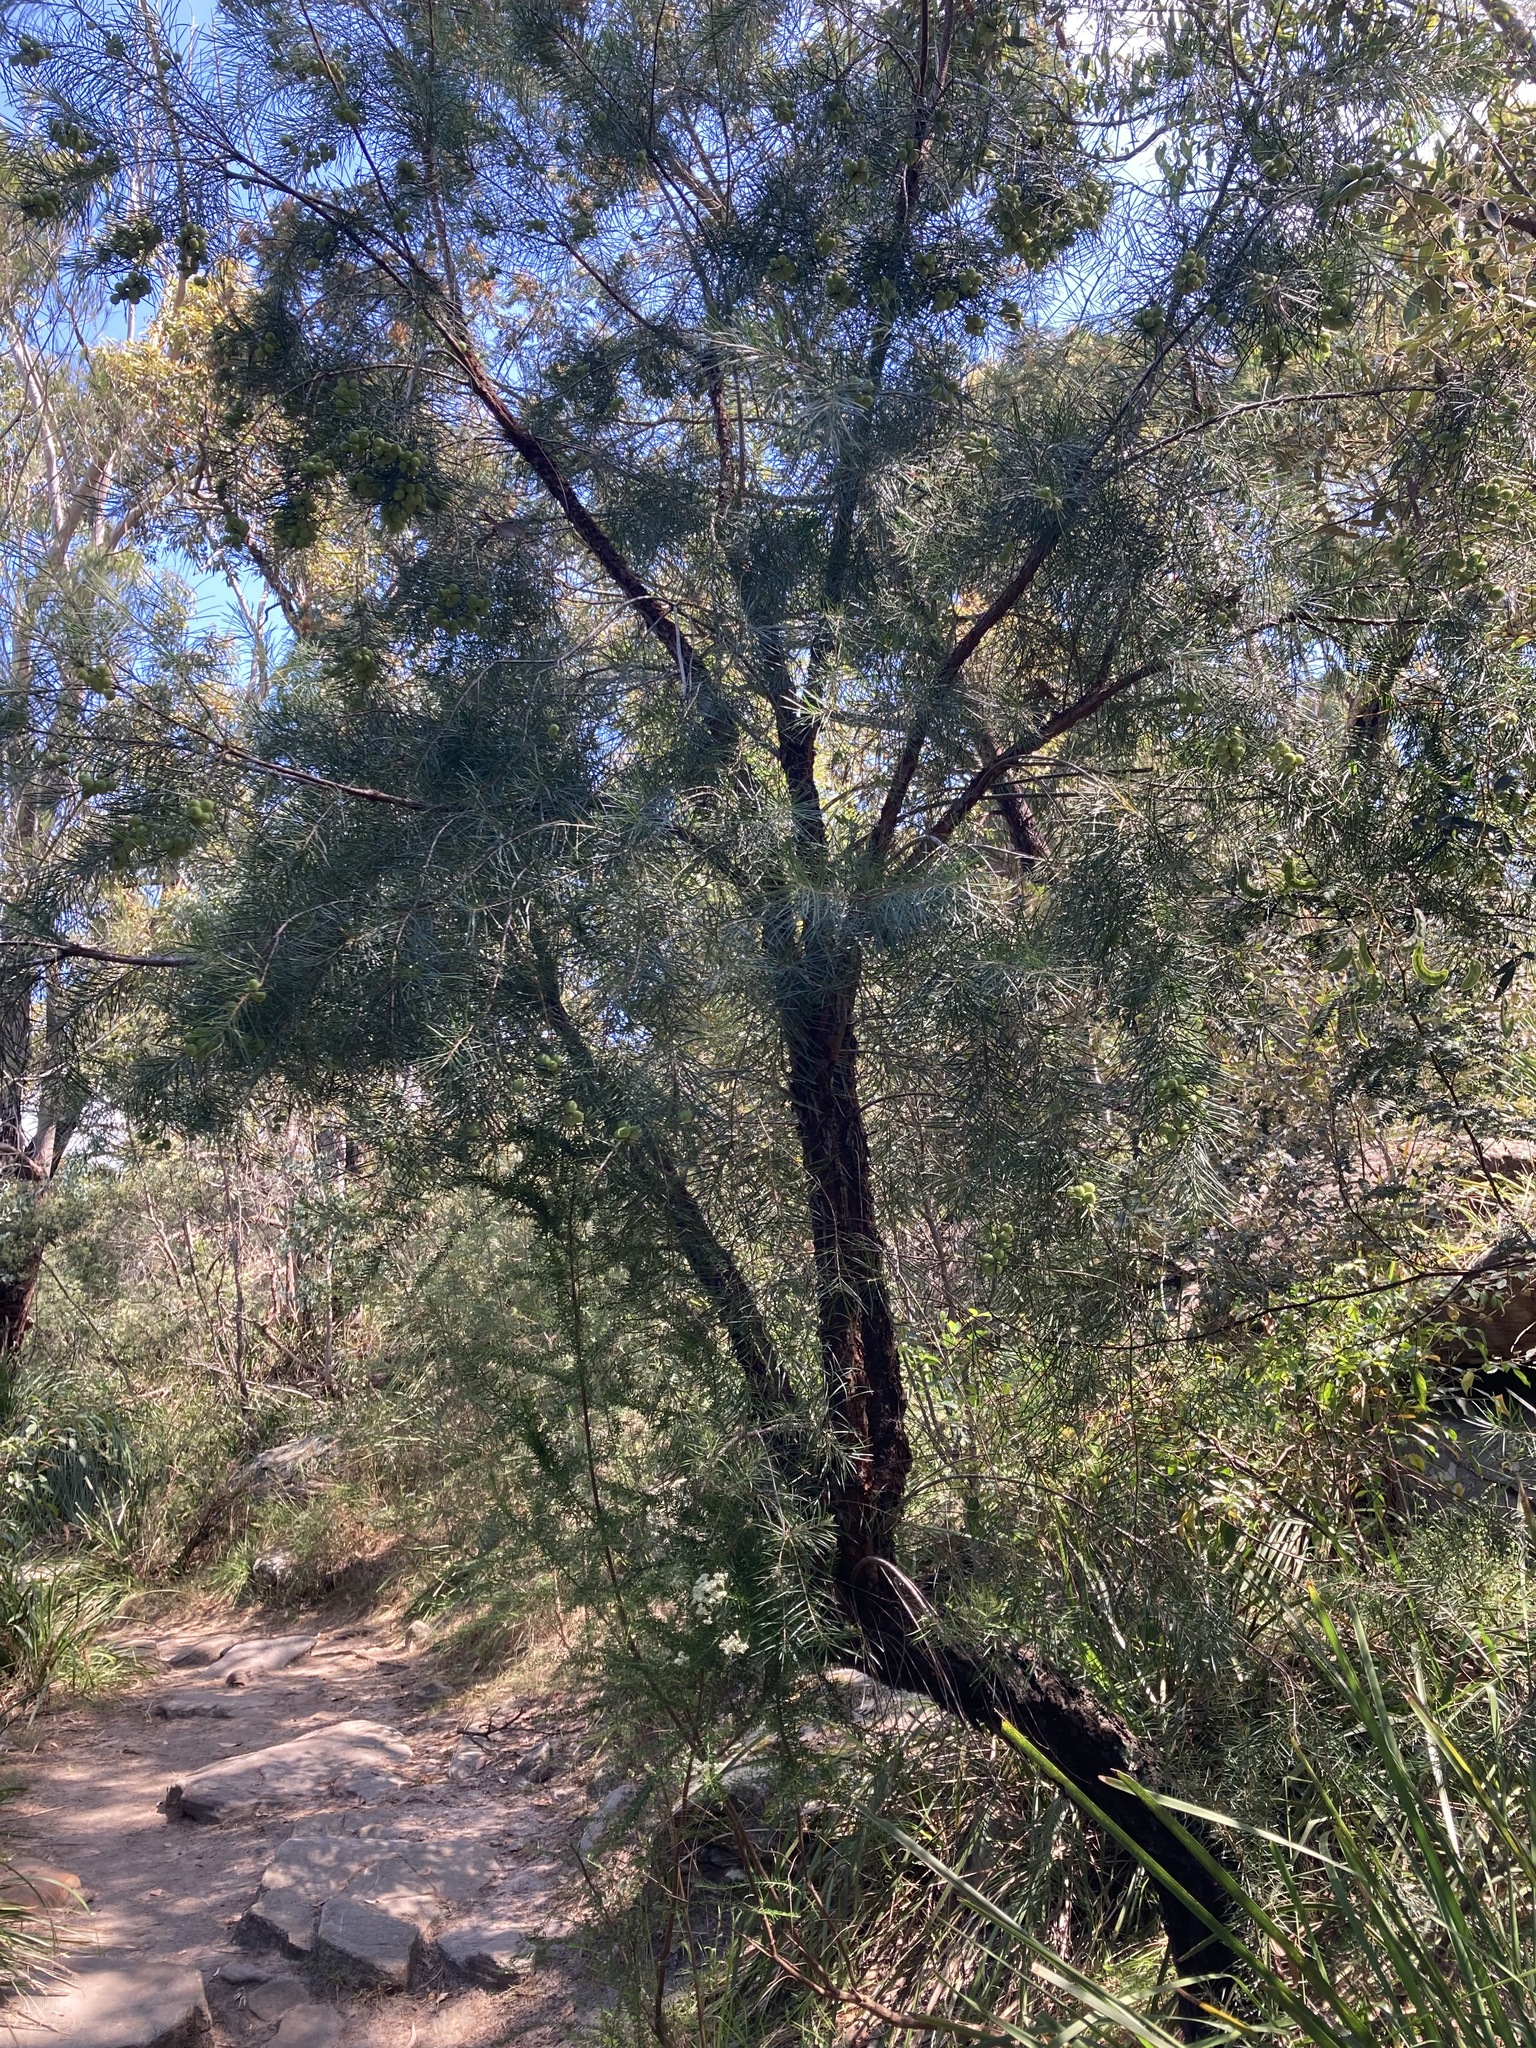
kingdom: Plantae
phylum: Tracheophyta
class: Magnoliopsida
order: Proteales
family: Proteaceae
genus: Persoonia
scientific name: Persoonia linearis
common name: Narrow-leaf geebung
